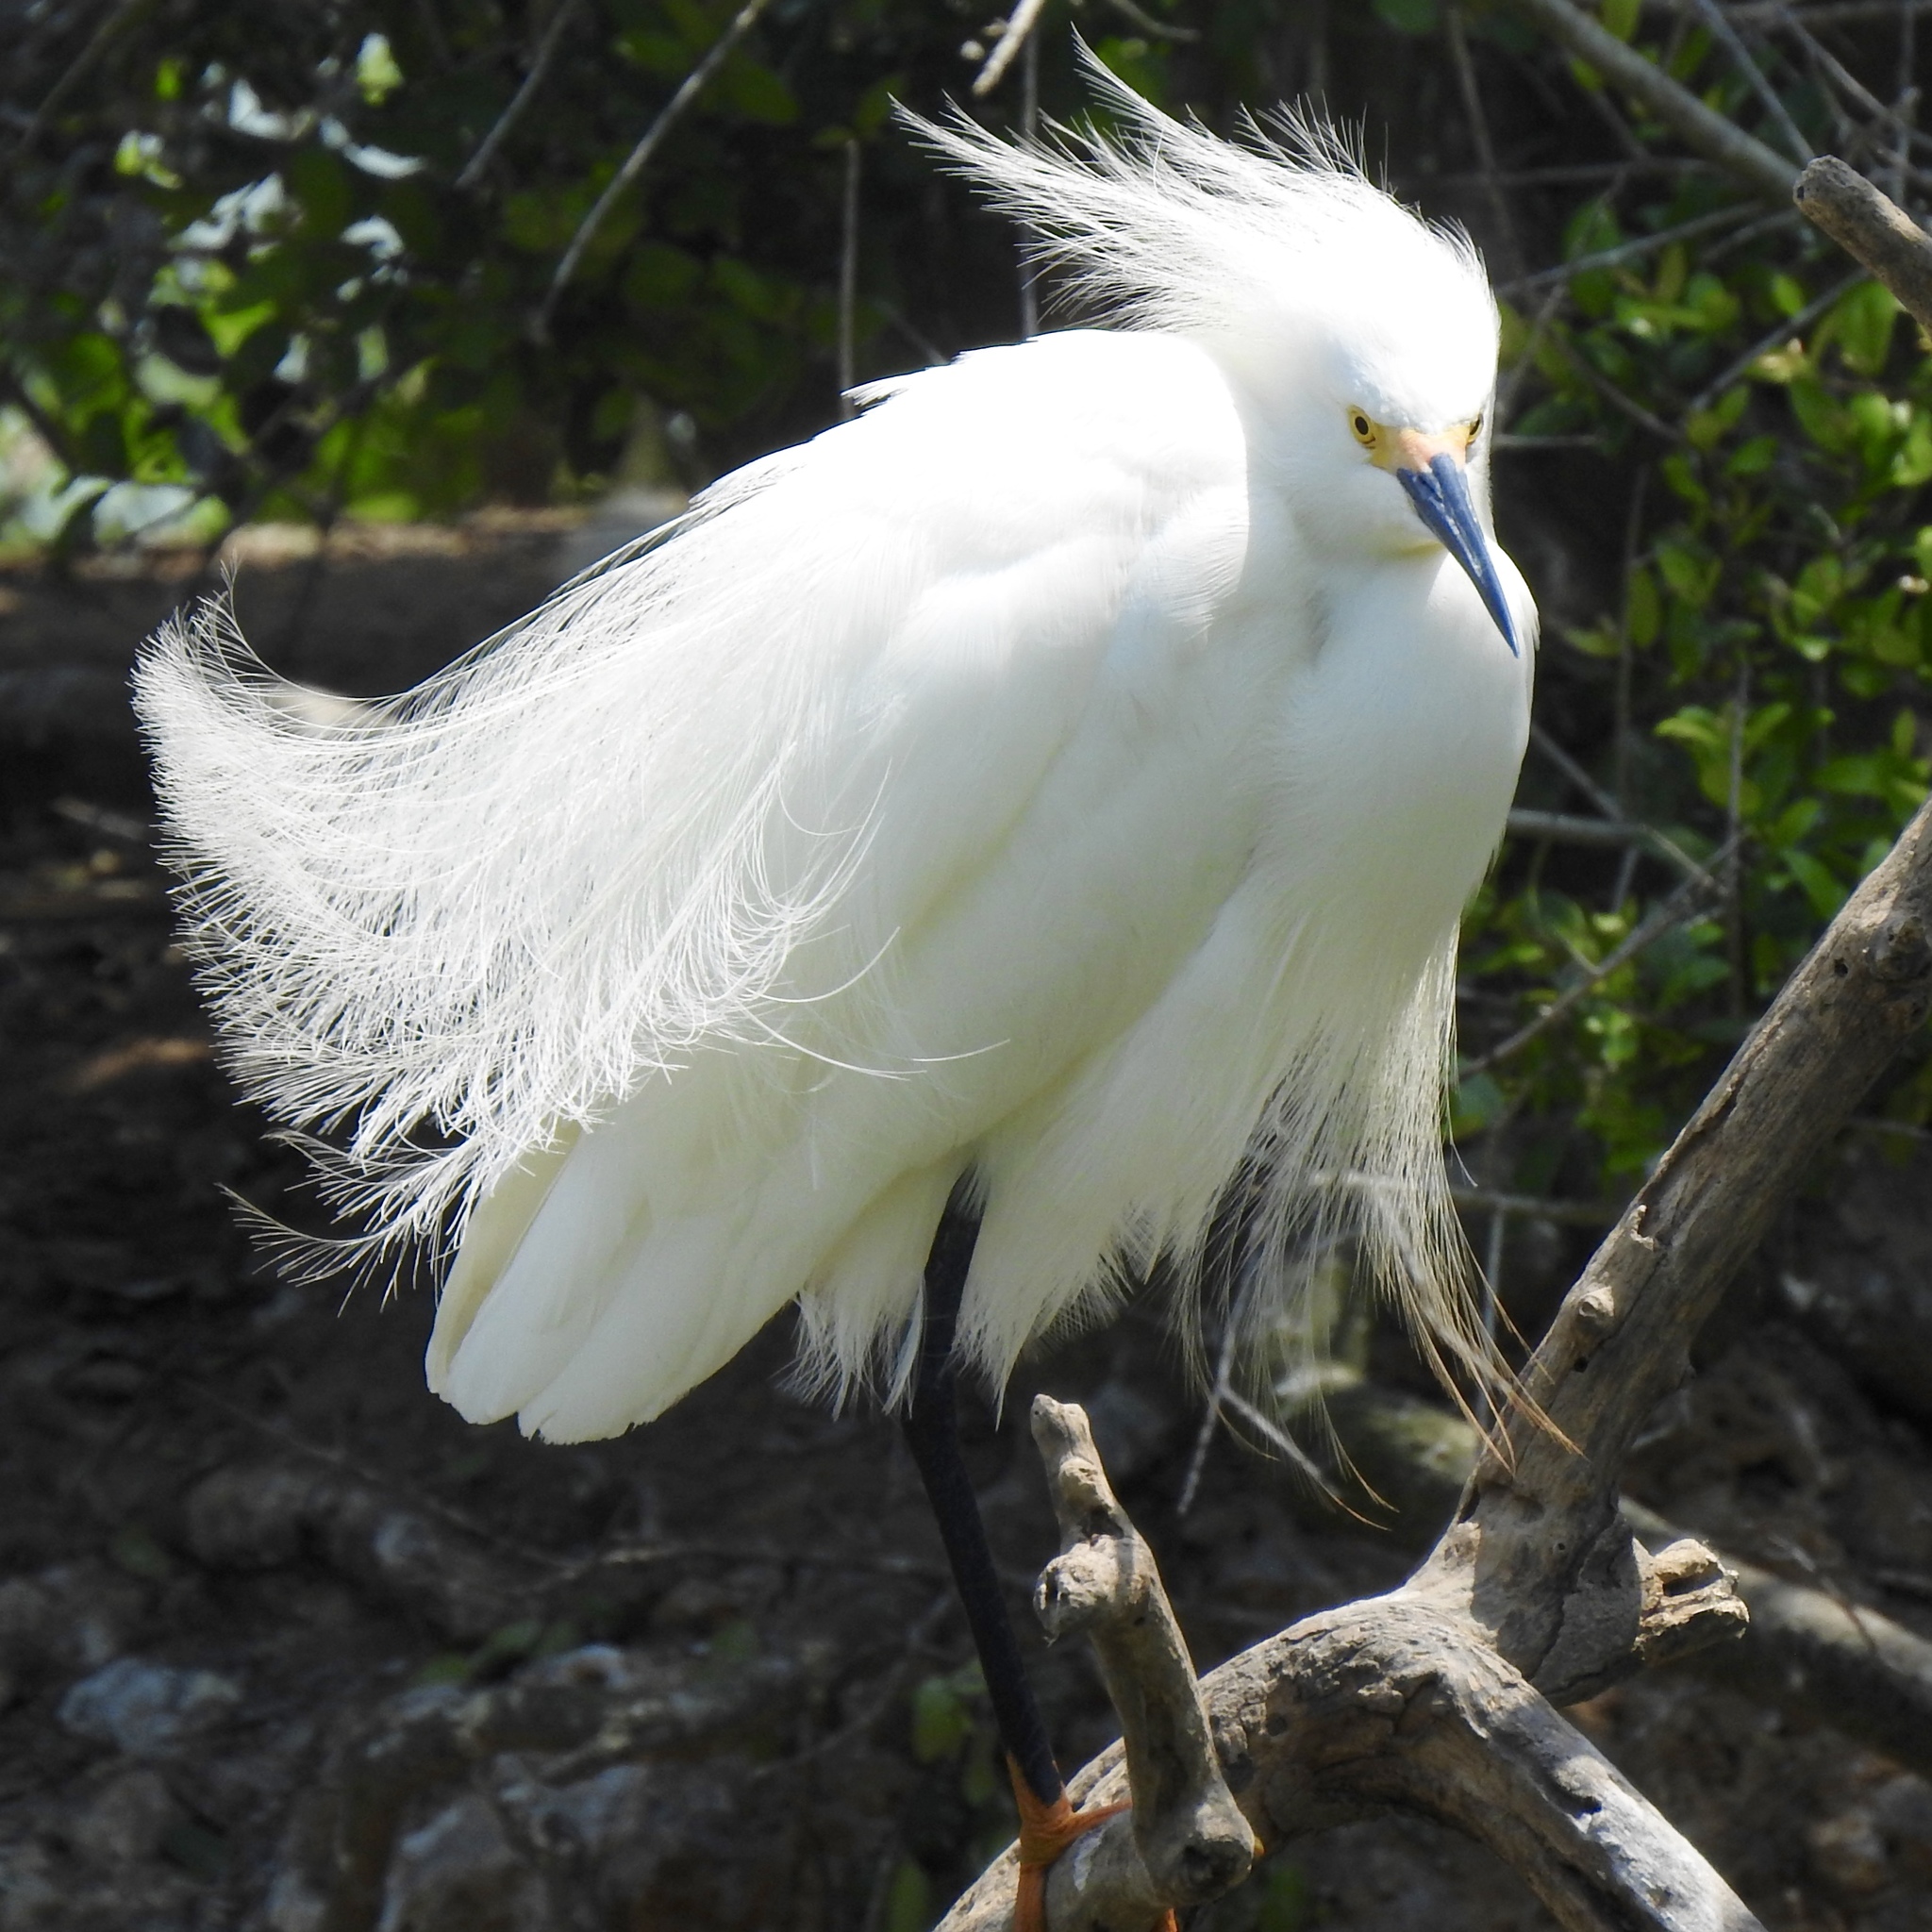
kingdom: Animalia
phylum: Chordata
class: Aves
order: Pelecaniformes
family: Ardeidae
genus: Egretta
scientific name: Egretta thula
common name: Snowy egret
